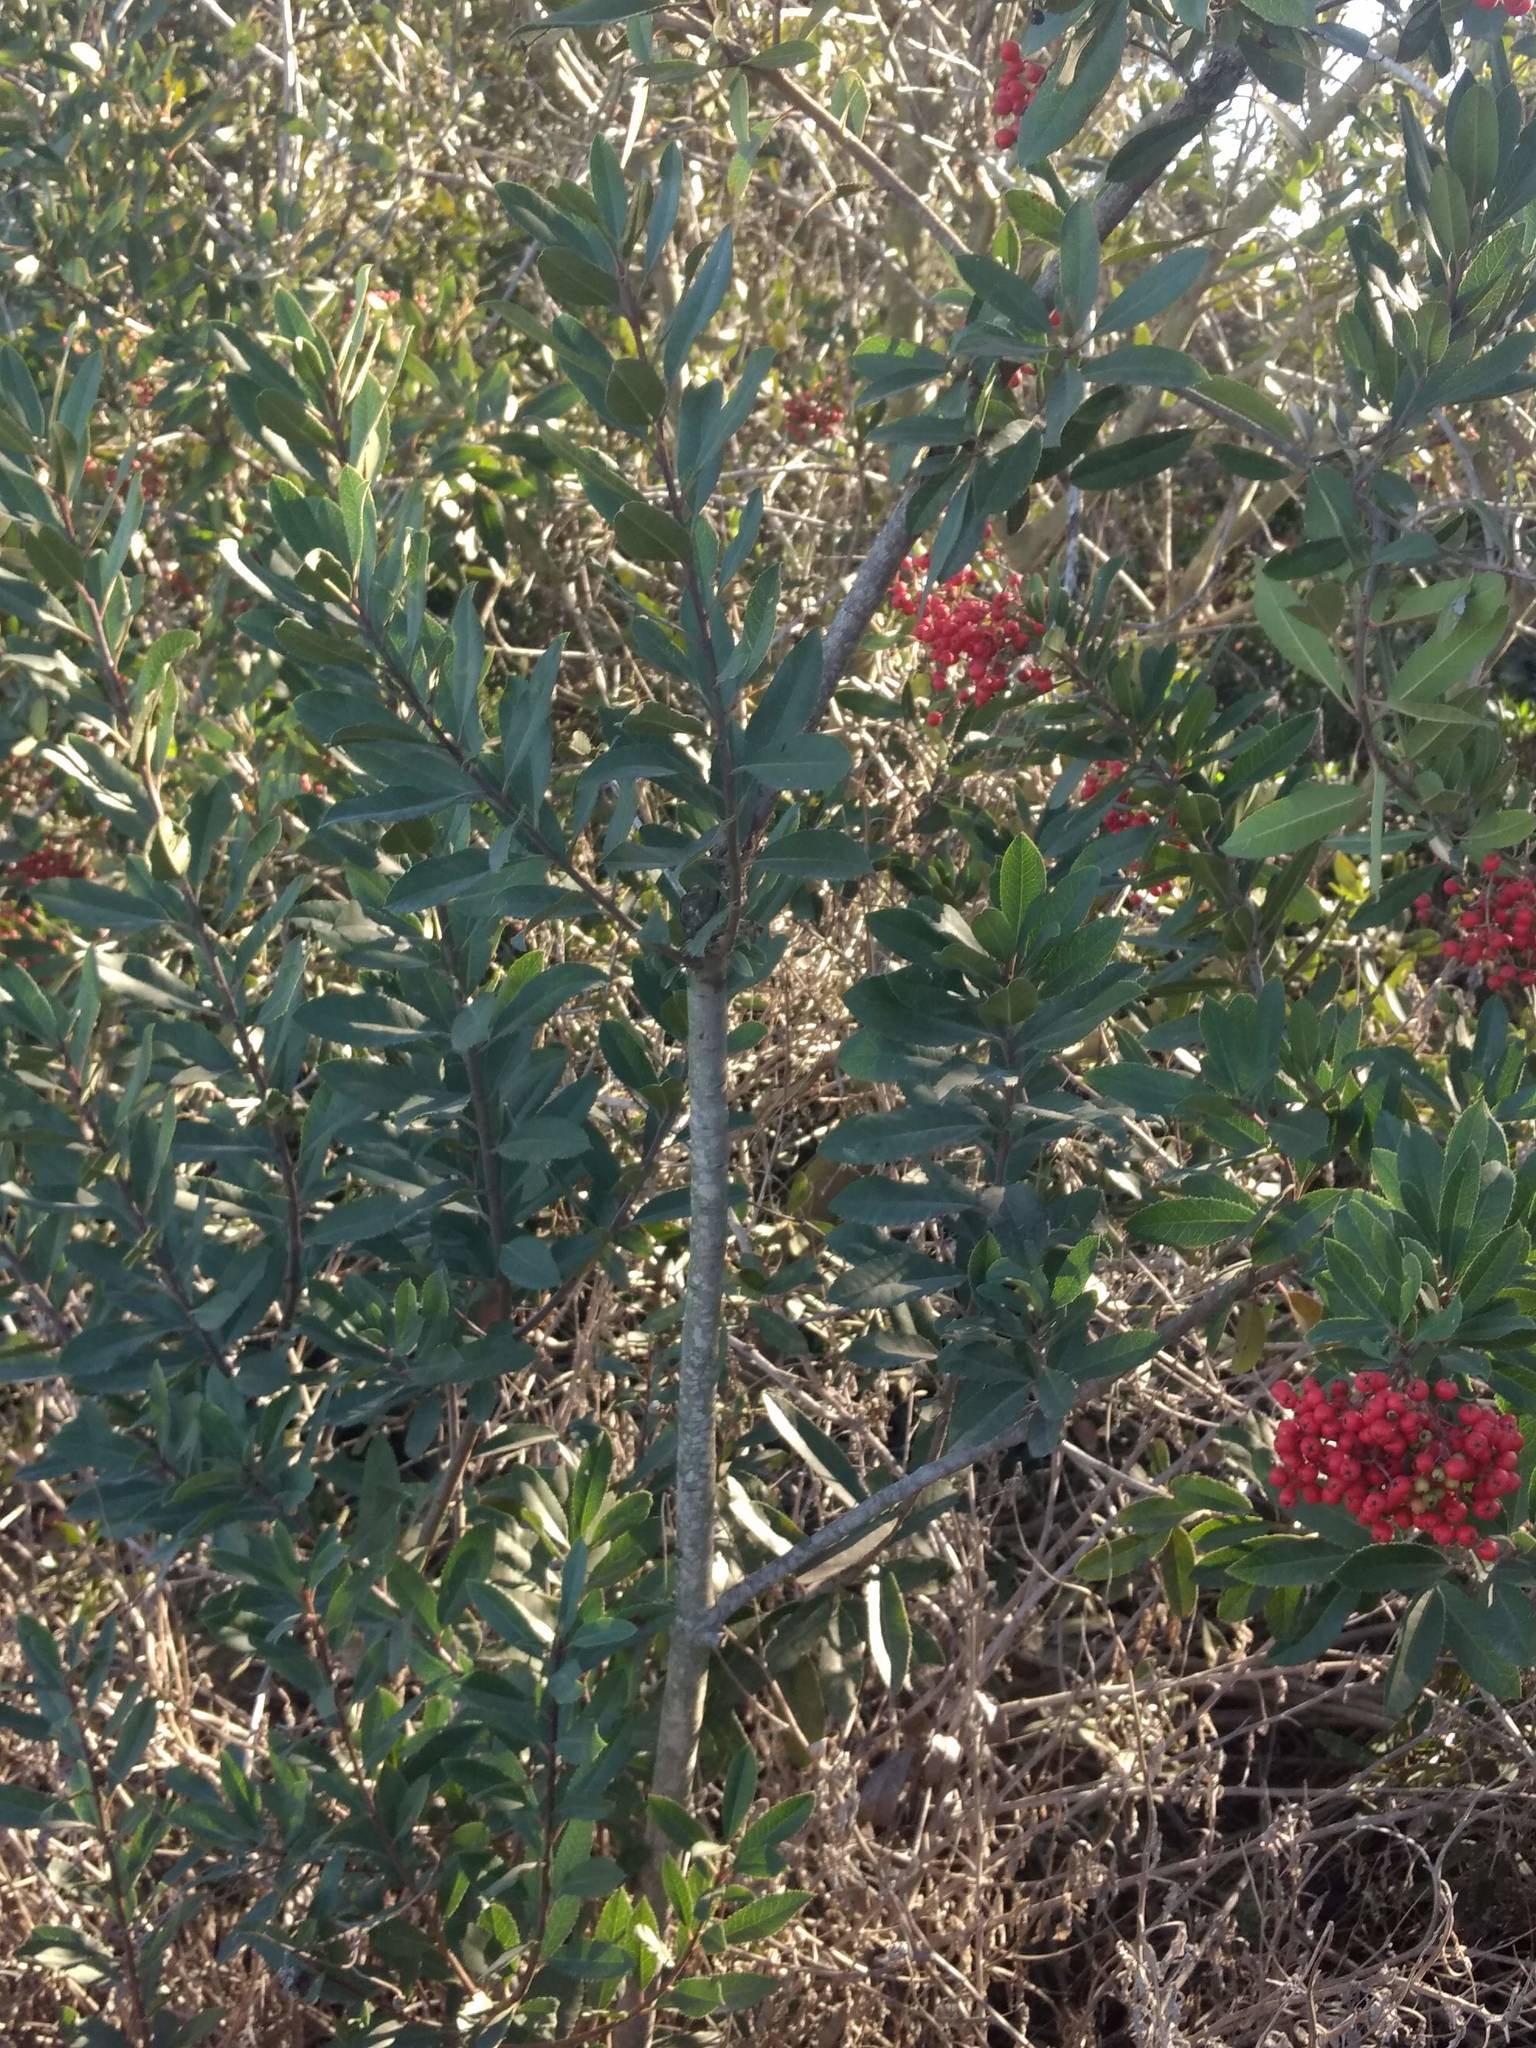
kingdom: Plantae
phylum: Tracheophyta
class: Magnoliopsida
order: Rosales
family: Rosaceae
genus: Heteromeles
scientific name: Heteromeles arbutifolia
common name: California-holly
